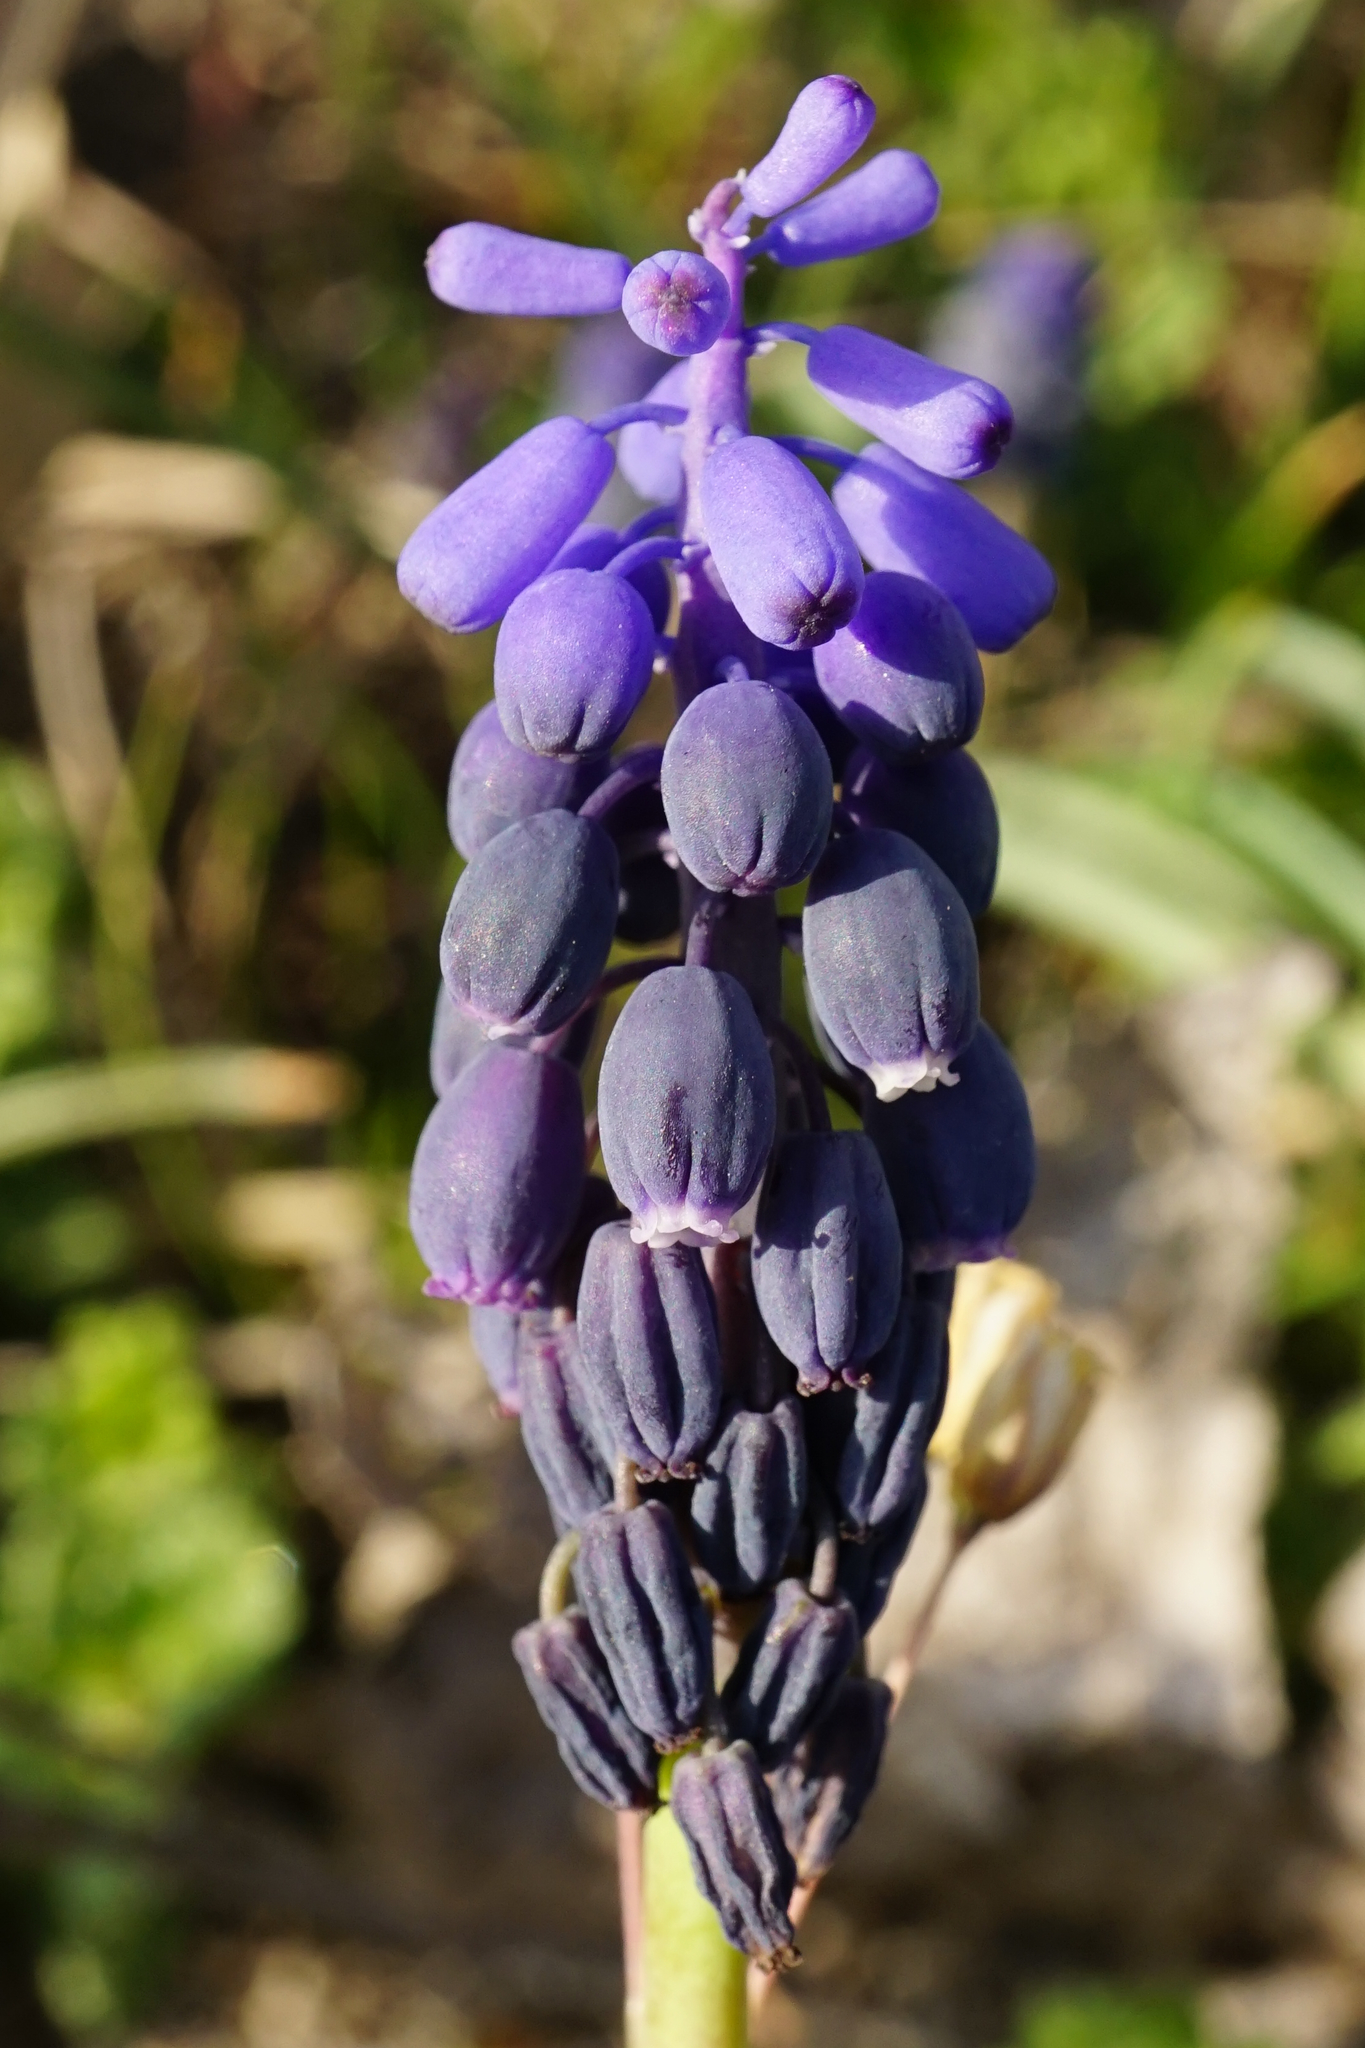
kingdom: Plantae
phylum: Tracheophyta
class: Liliopsida
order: Asparagales
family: Asparagaceae
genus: Muscari
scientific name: Muscari neglectum
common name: Grape-hyacinth
